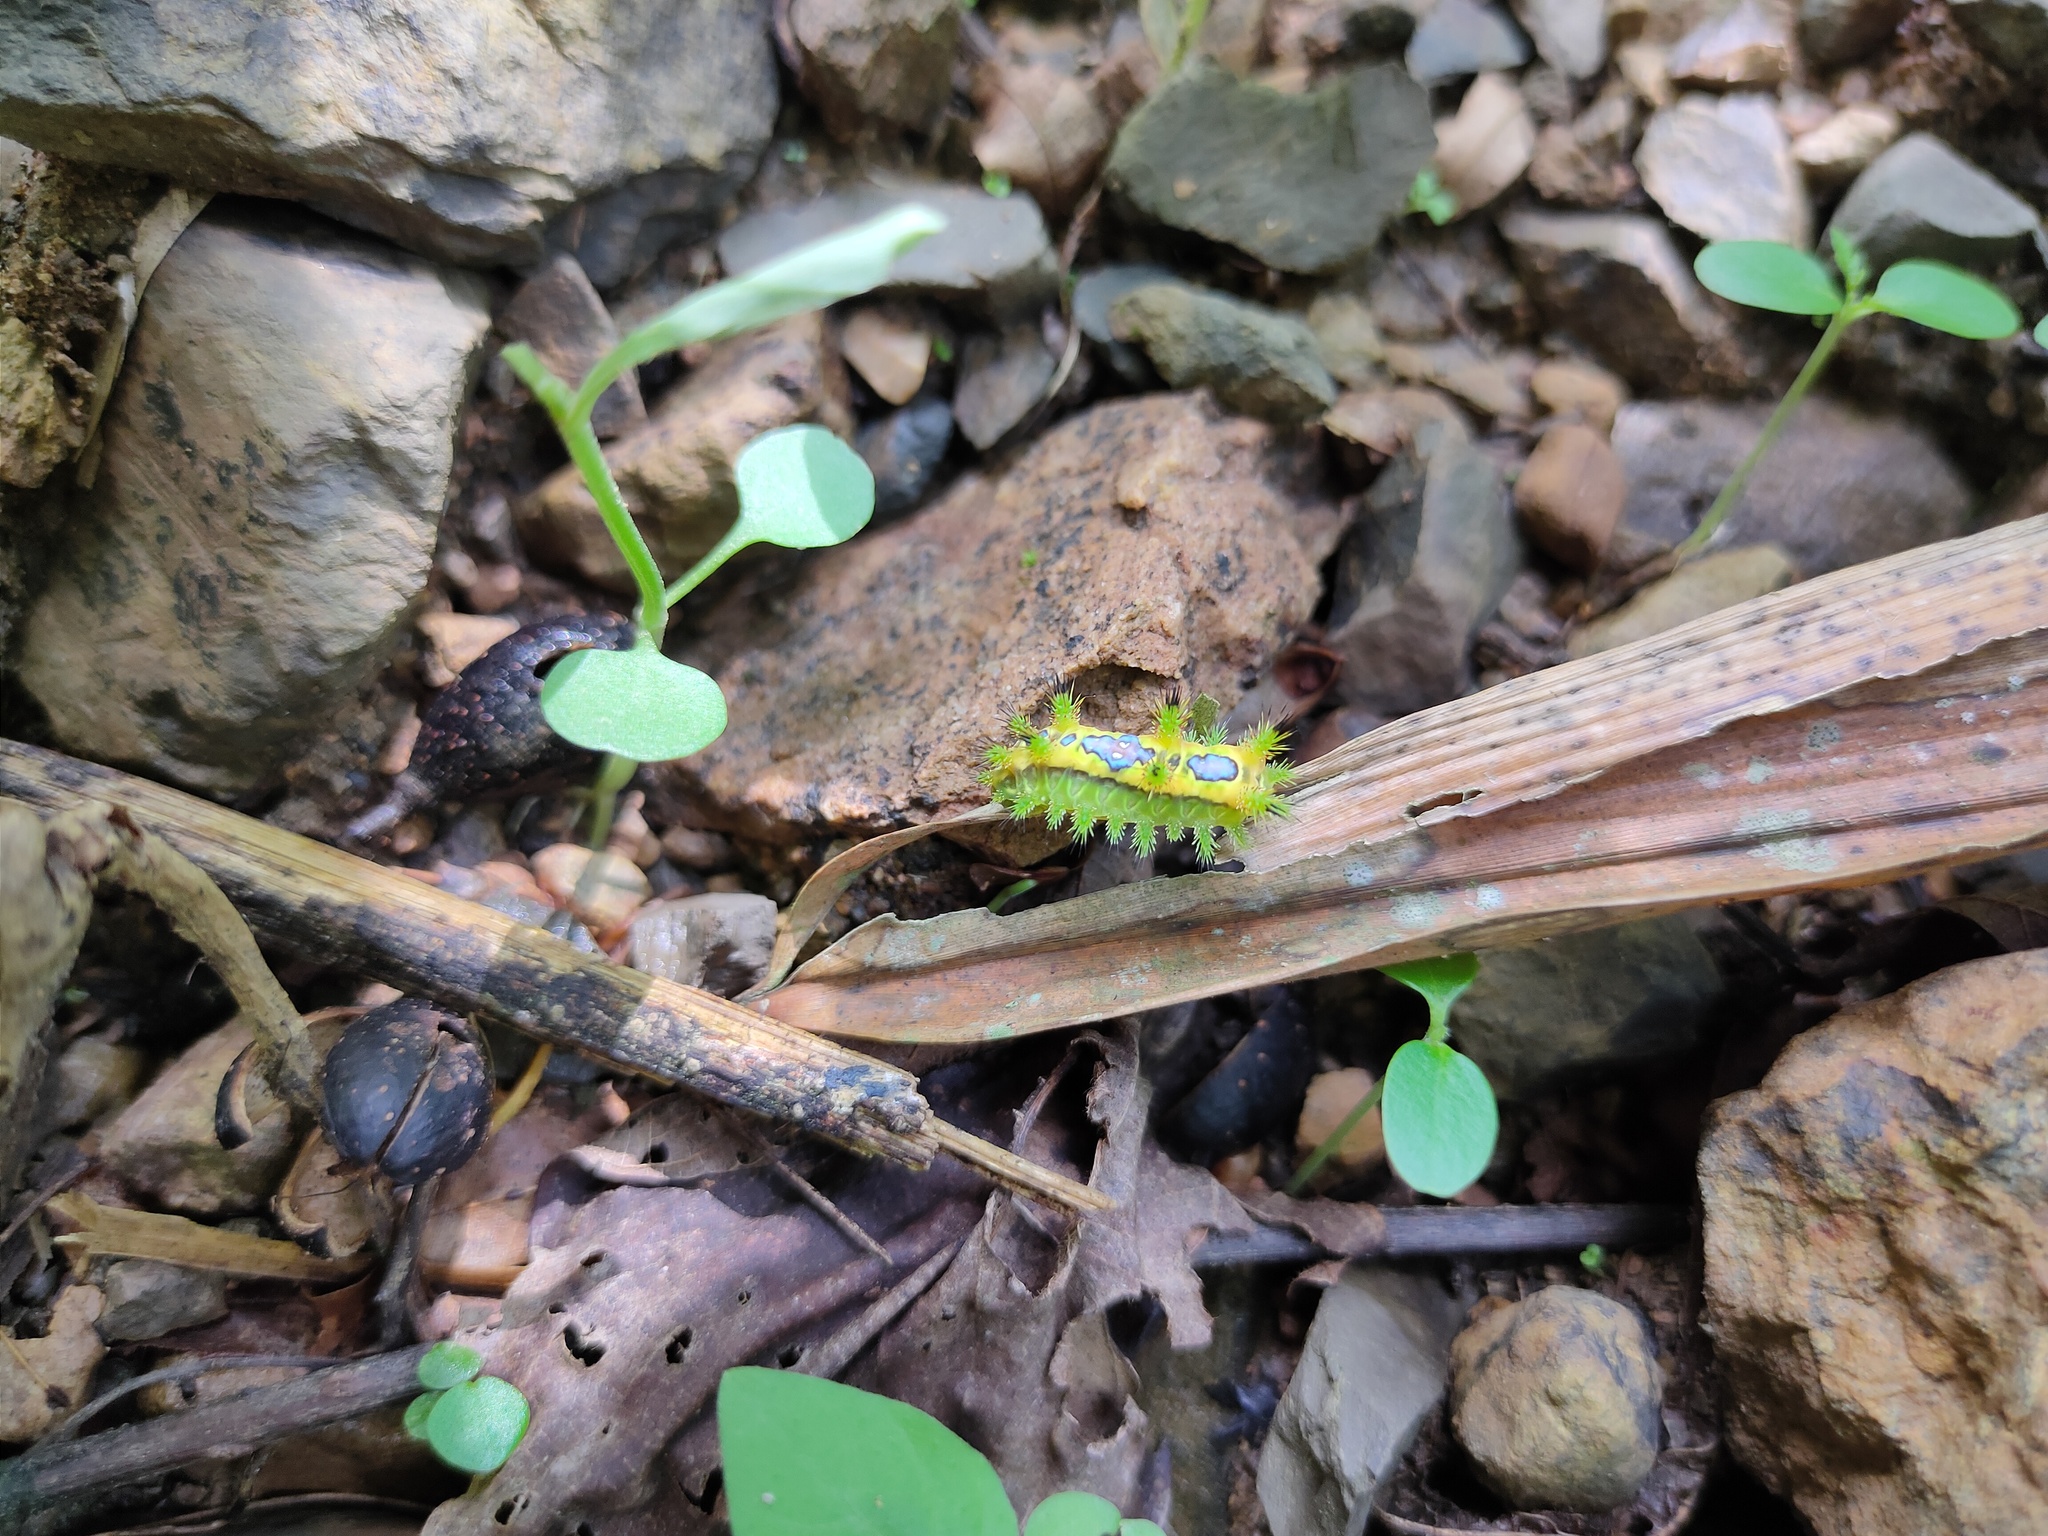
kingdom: Animalia
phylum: Arthropoda
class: Insecta
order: Lepidoptera
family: Limacodidae
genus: Setothosea
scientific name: Setothosea asigna
